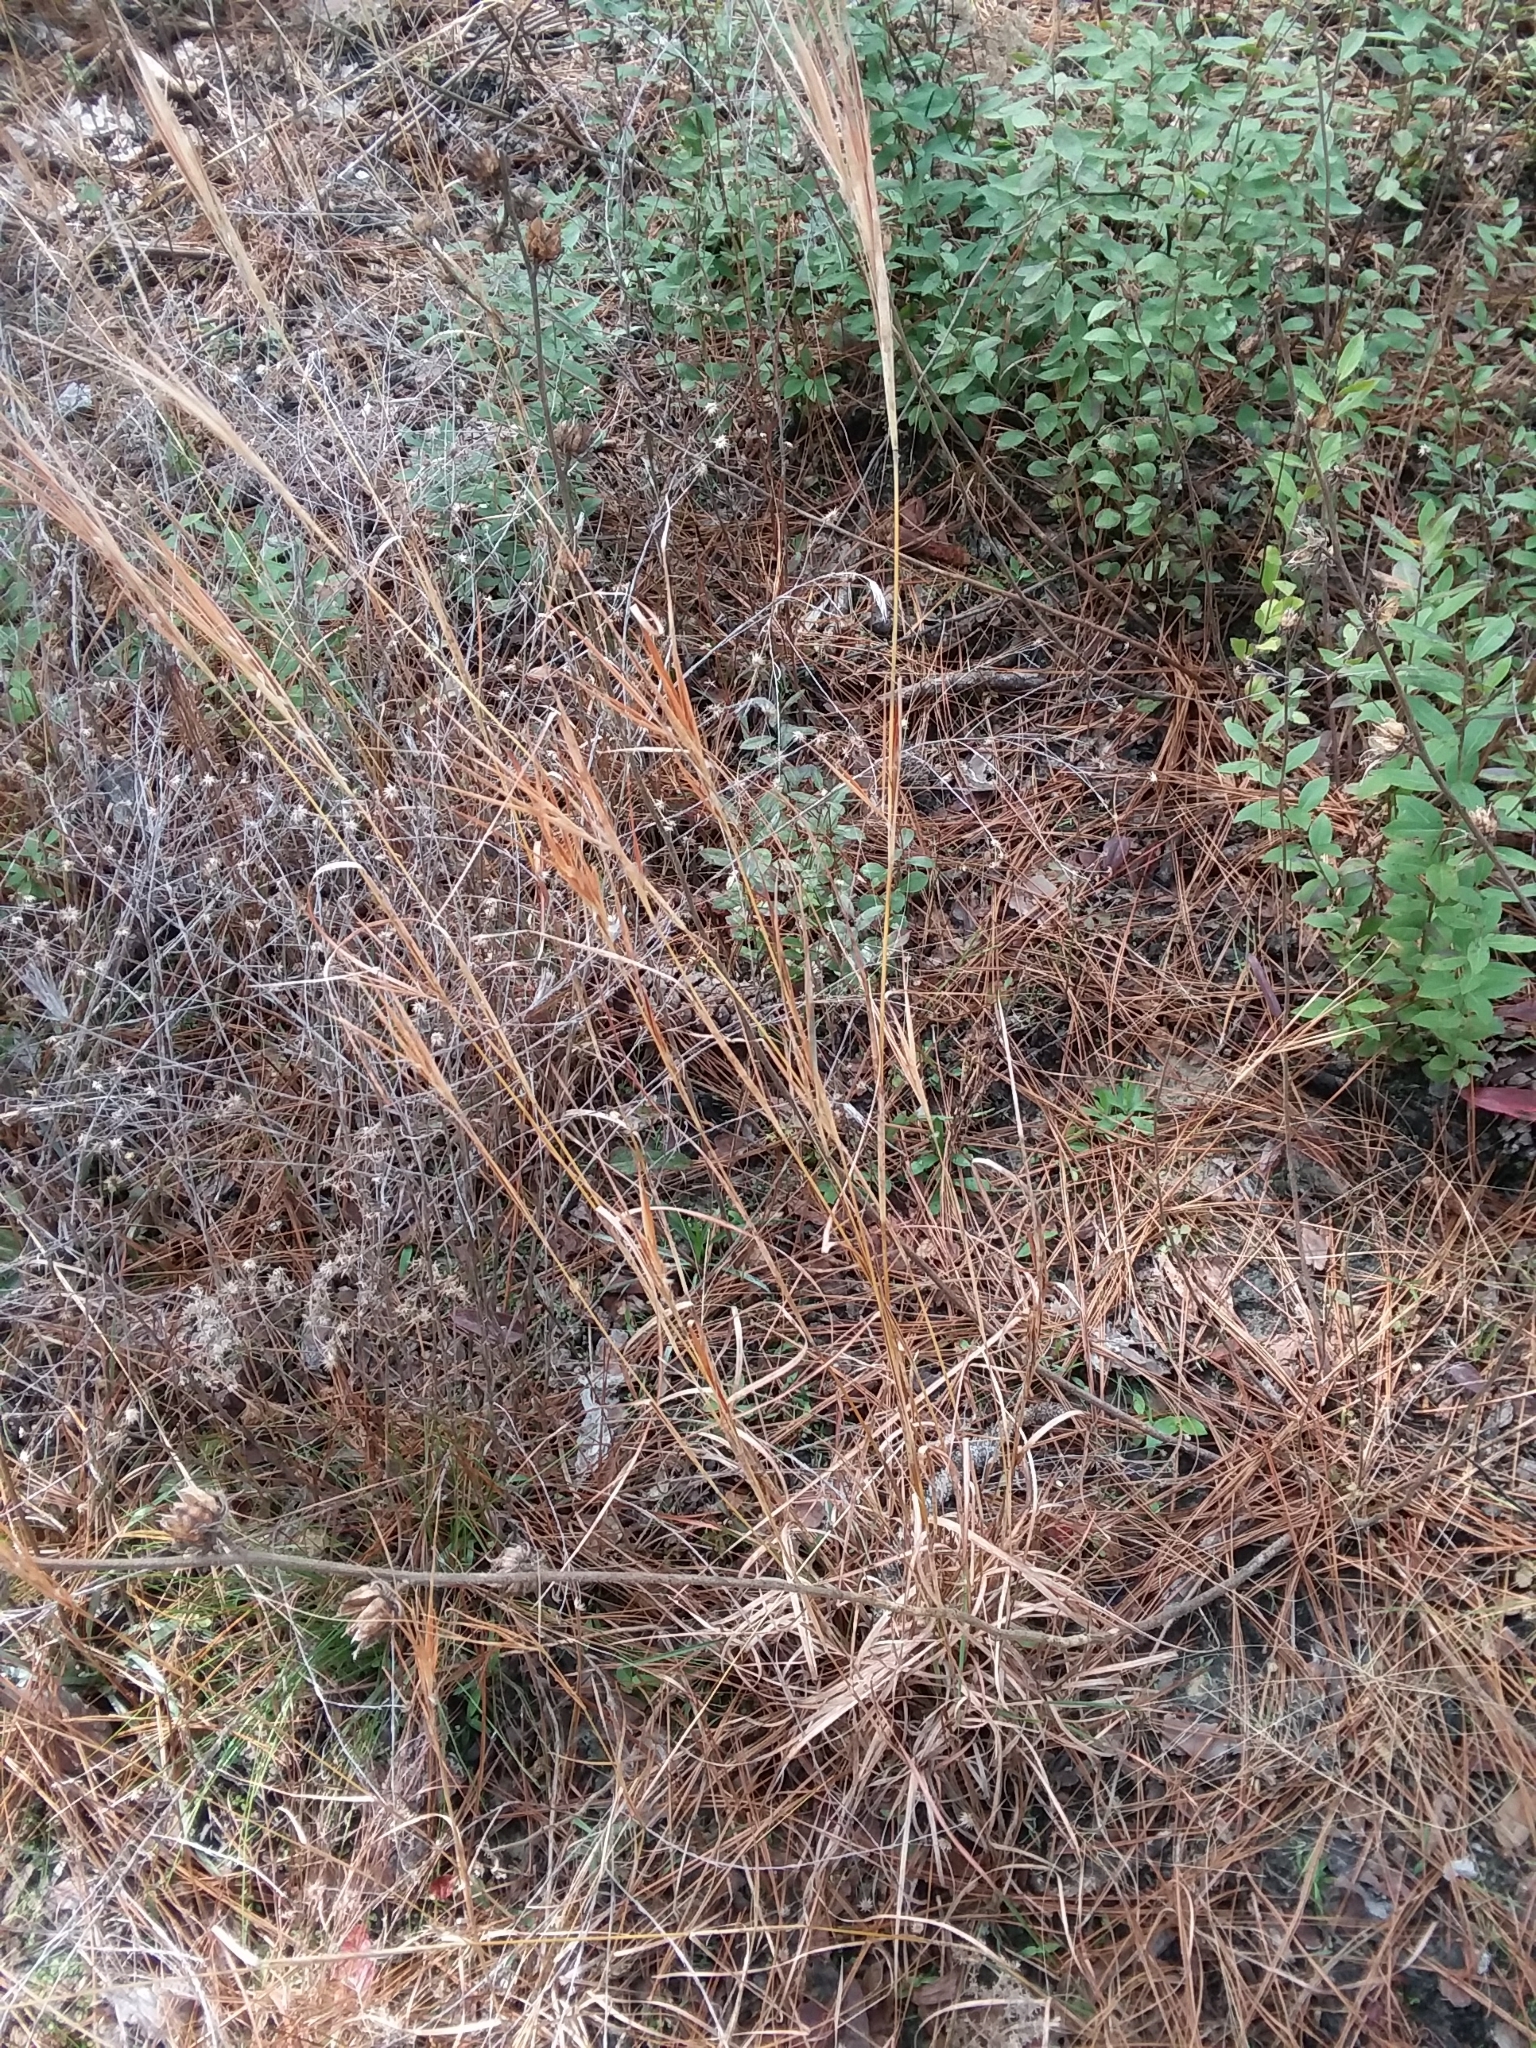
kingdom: Plantae
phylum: Tracheophyta
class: Liliopsida
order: Poales
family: Poaceae
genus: Andropogon
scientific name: Andropogon gyrans
